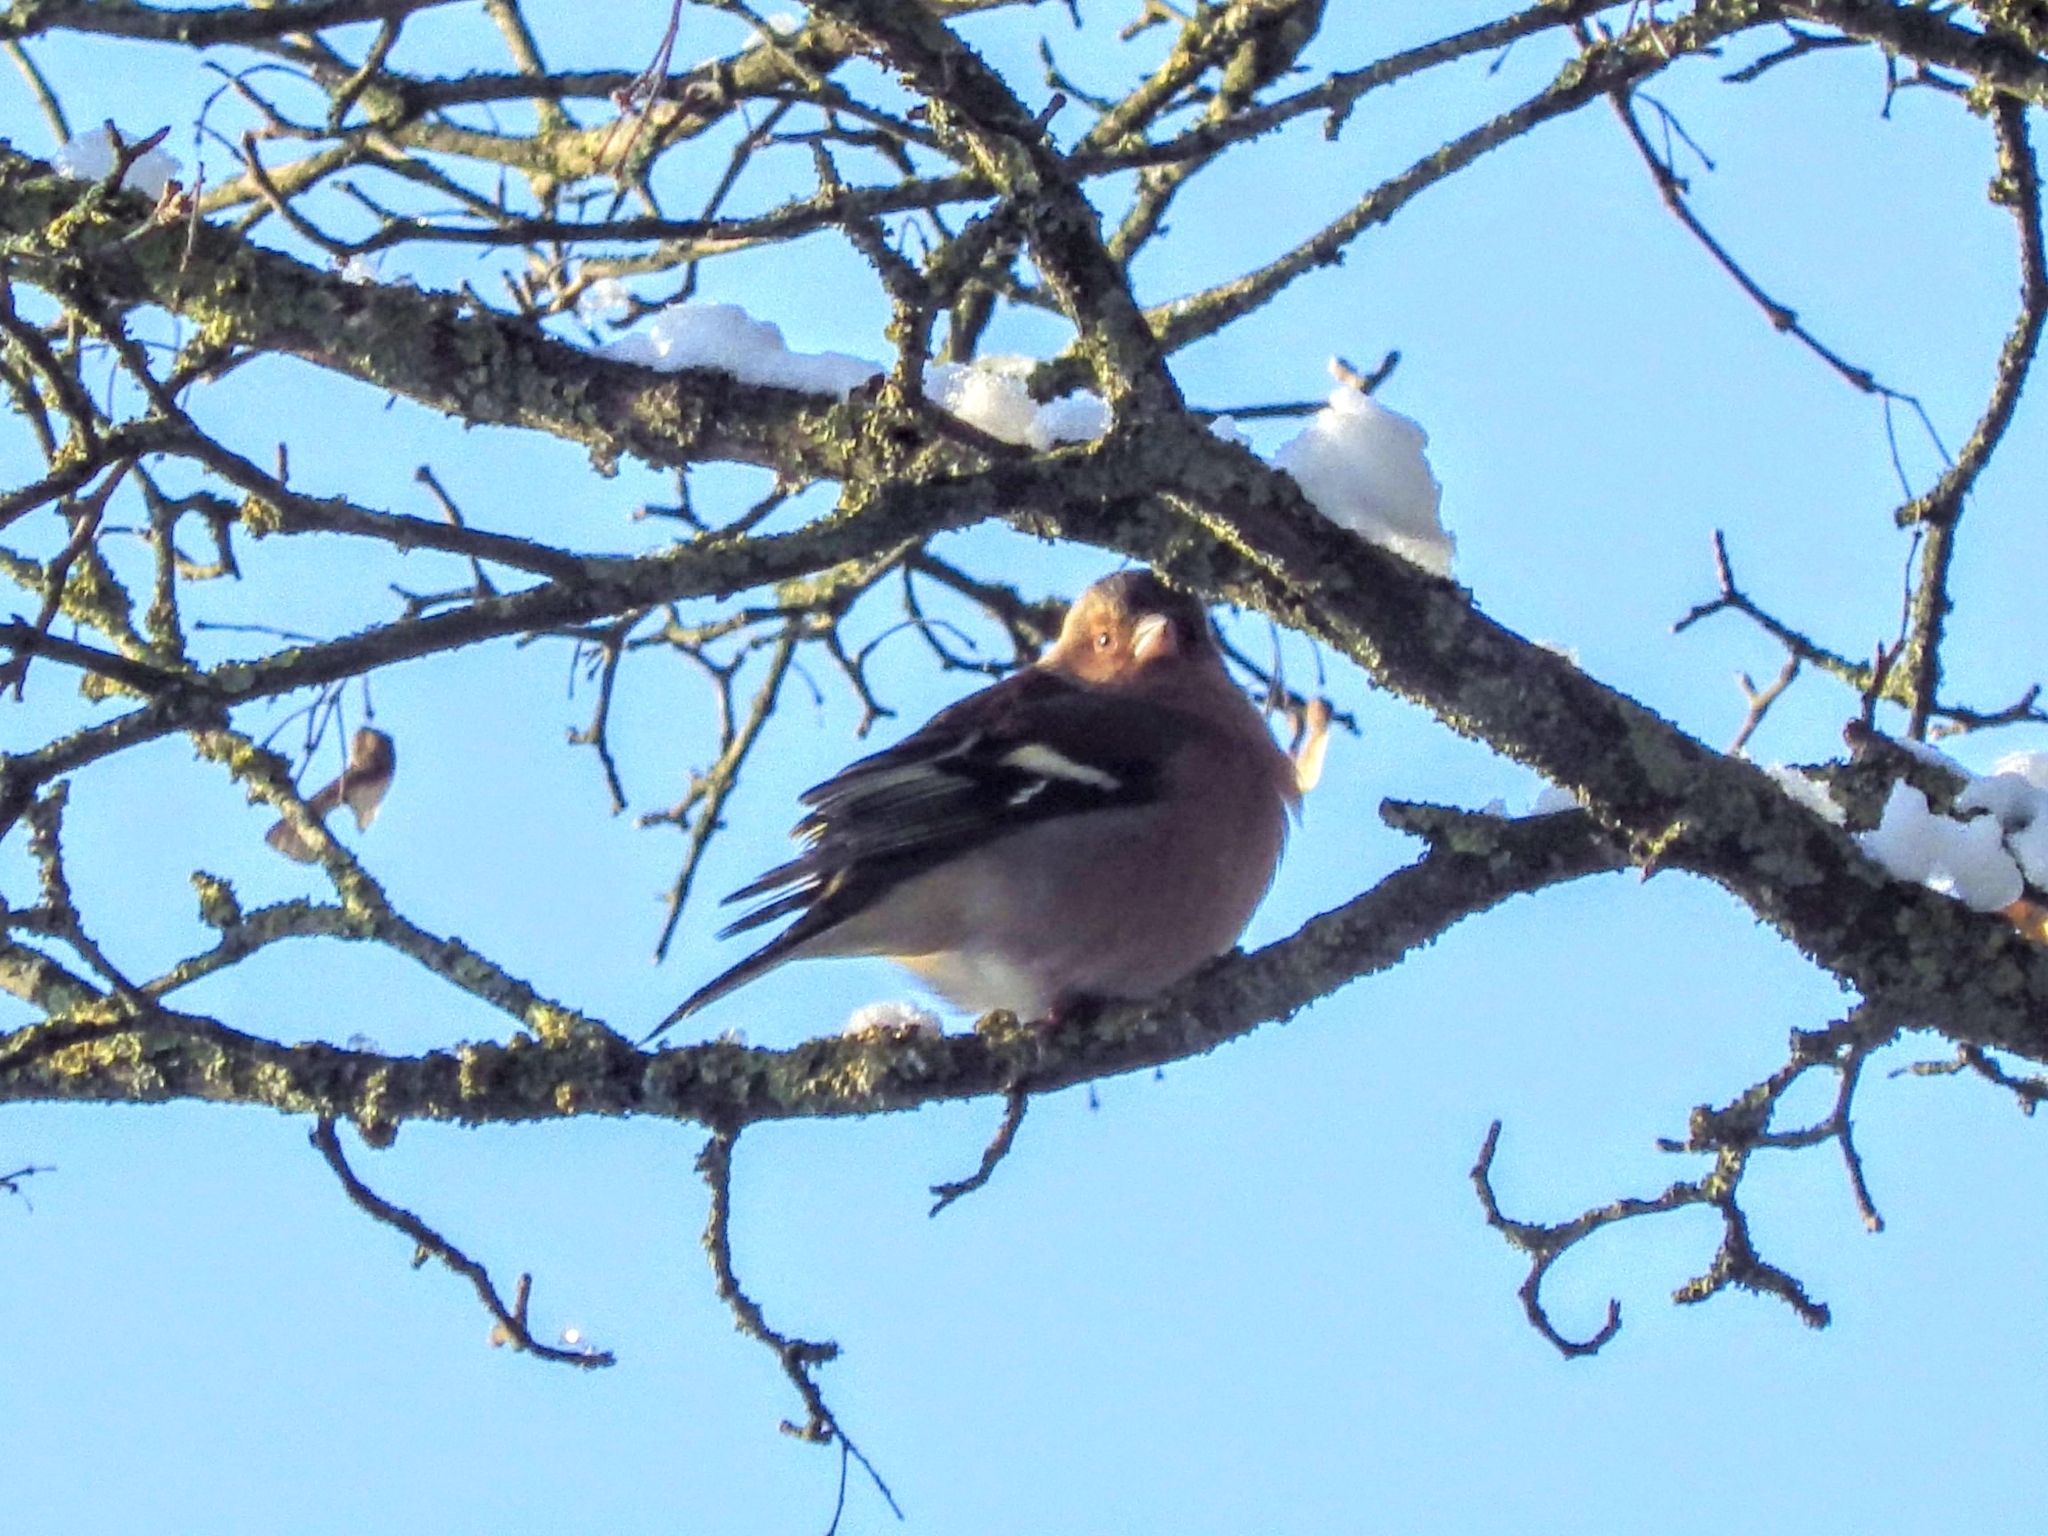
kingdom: Animalia
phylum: Chordata
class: Aves
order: Passeriformes
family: Fringillidae
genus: Fringilla
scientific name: Fringilla coelebs
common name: Common chaffinch
